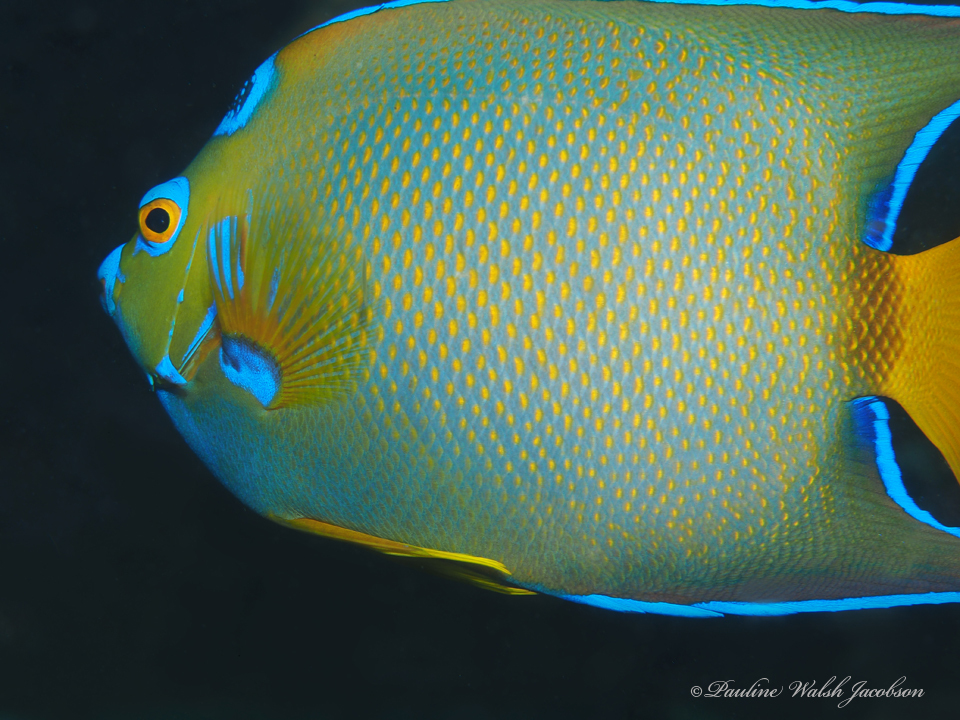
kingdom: Animalia
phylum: Chordata
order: Perciformes
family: Pomacanthidae
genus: Holacanthus
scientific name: Holacanthus ciliaris
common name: Queen angelfish
